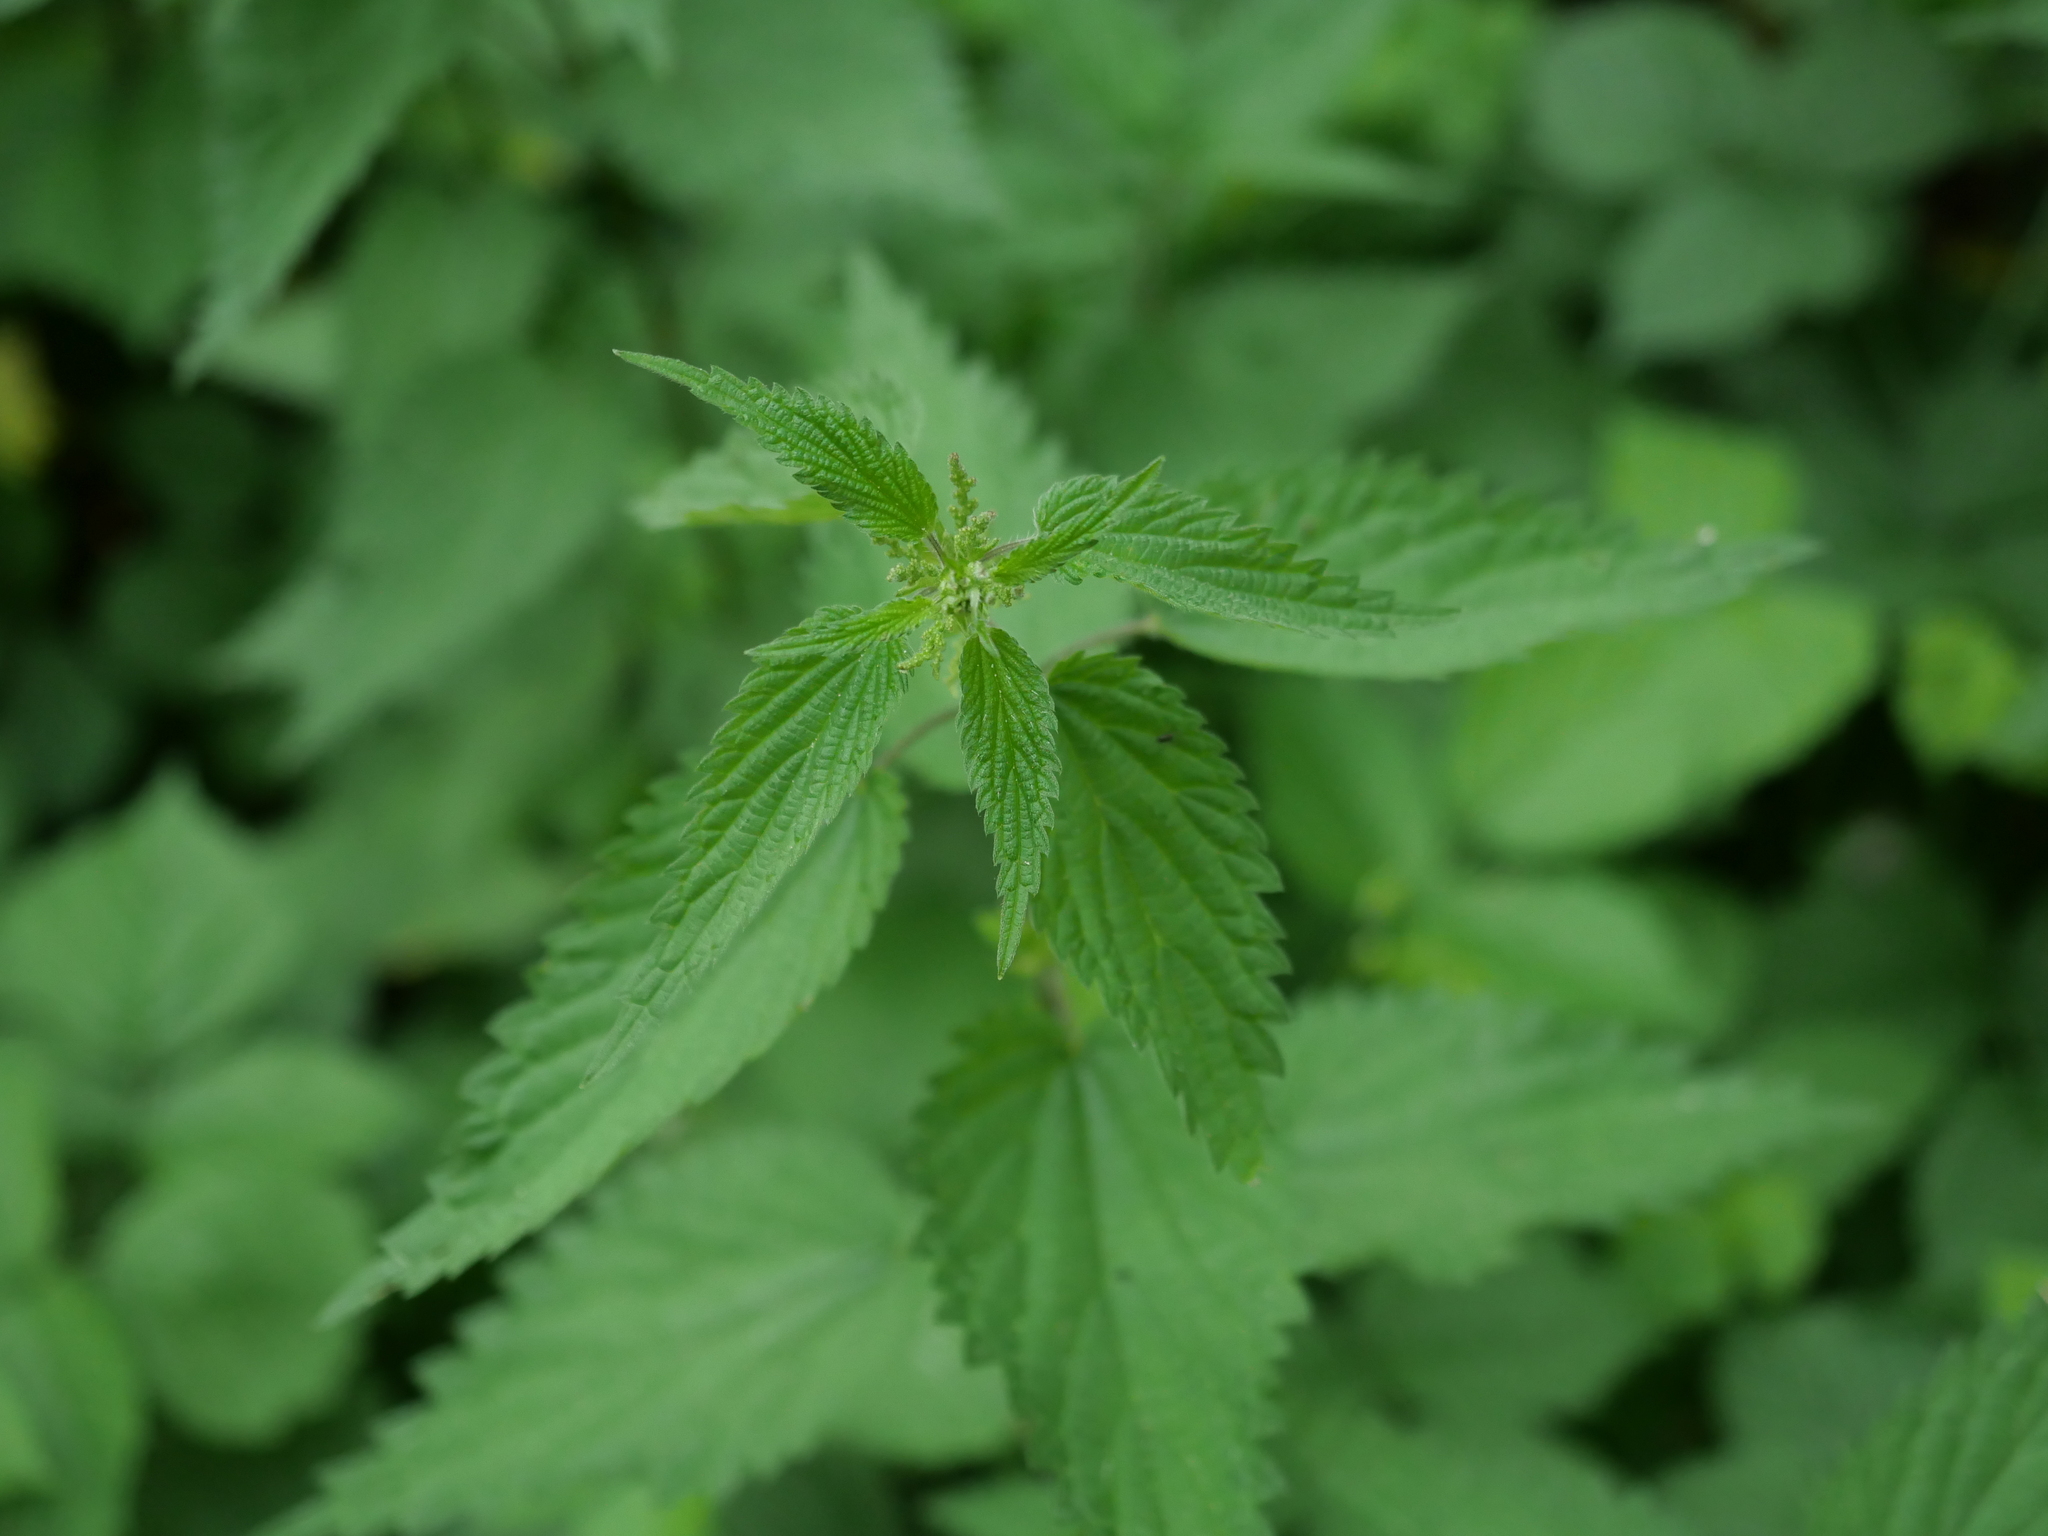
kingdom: Plantae
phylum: Tracheophyta
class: Magnoliopsida
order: Rosales
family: Urticaceae
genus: Urtica
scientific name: Urtica dioica
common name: Common nettle
